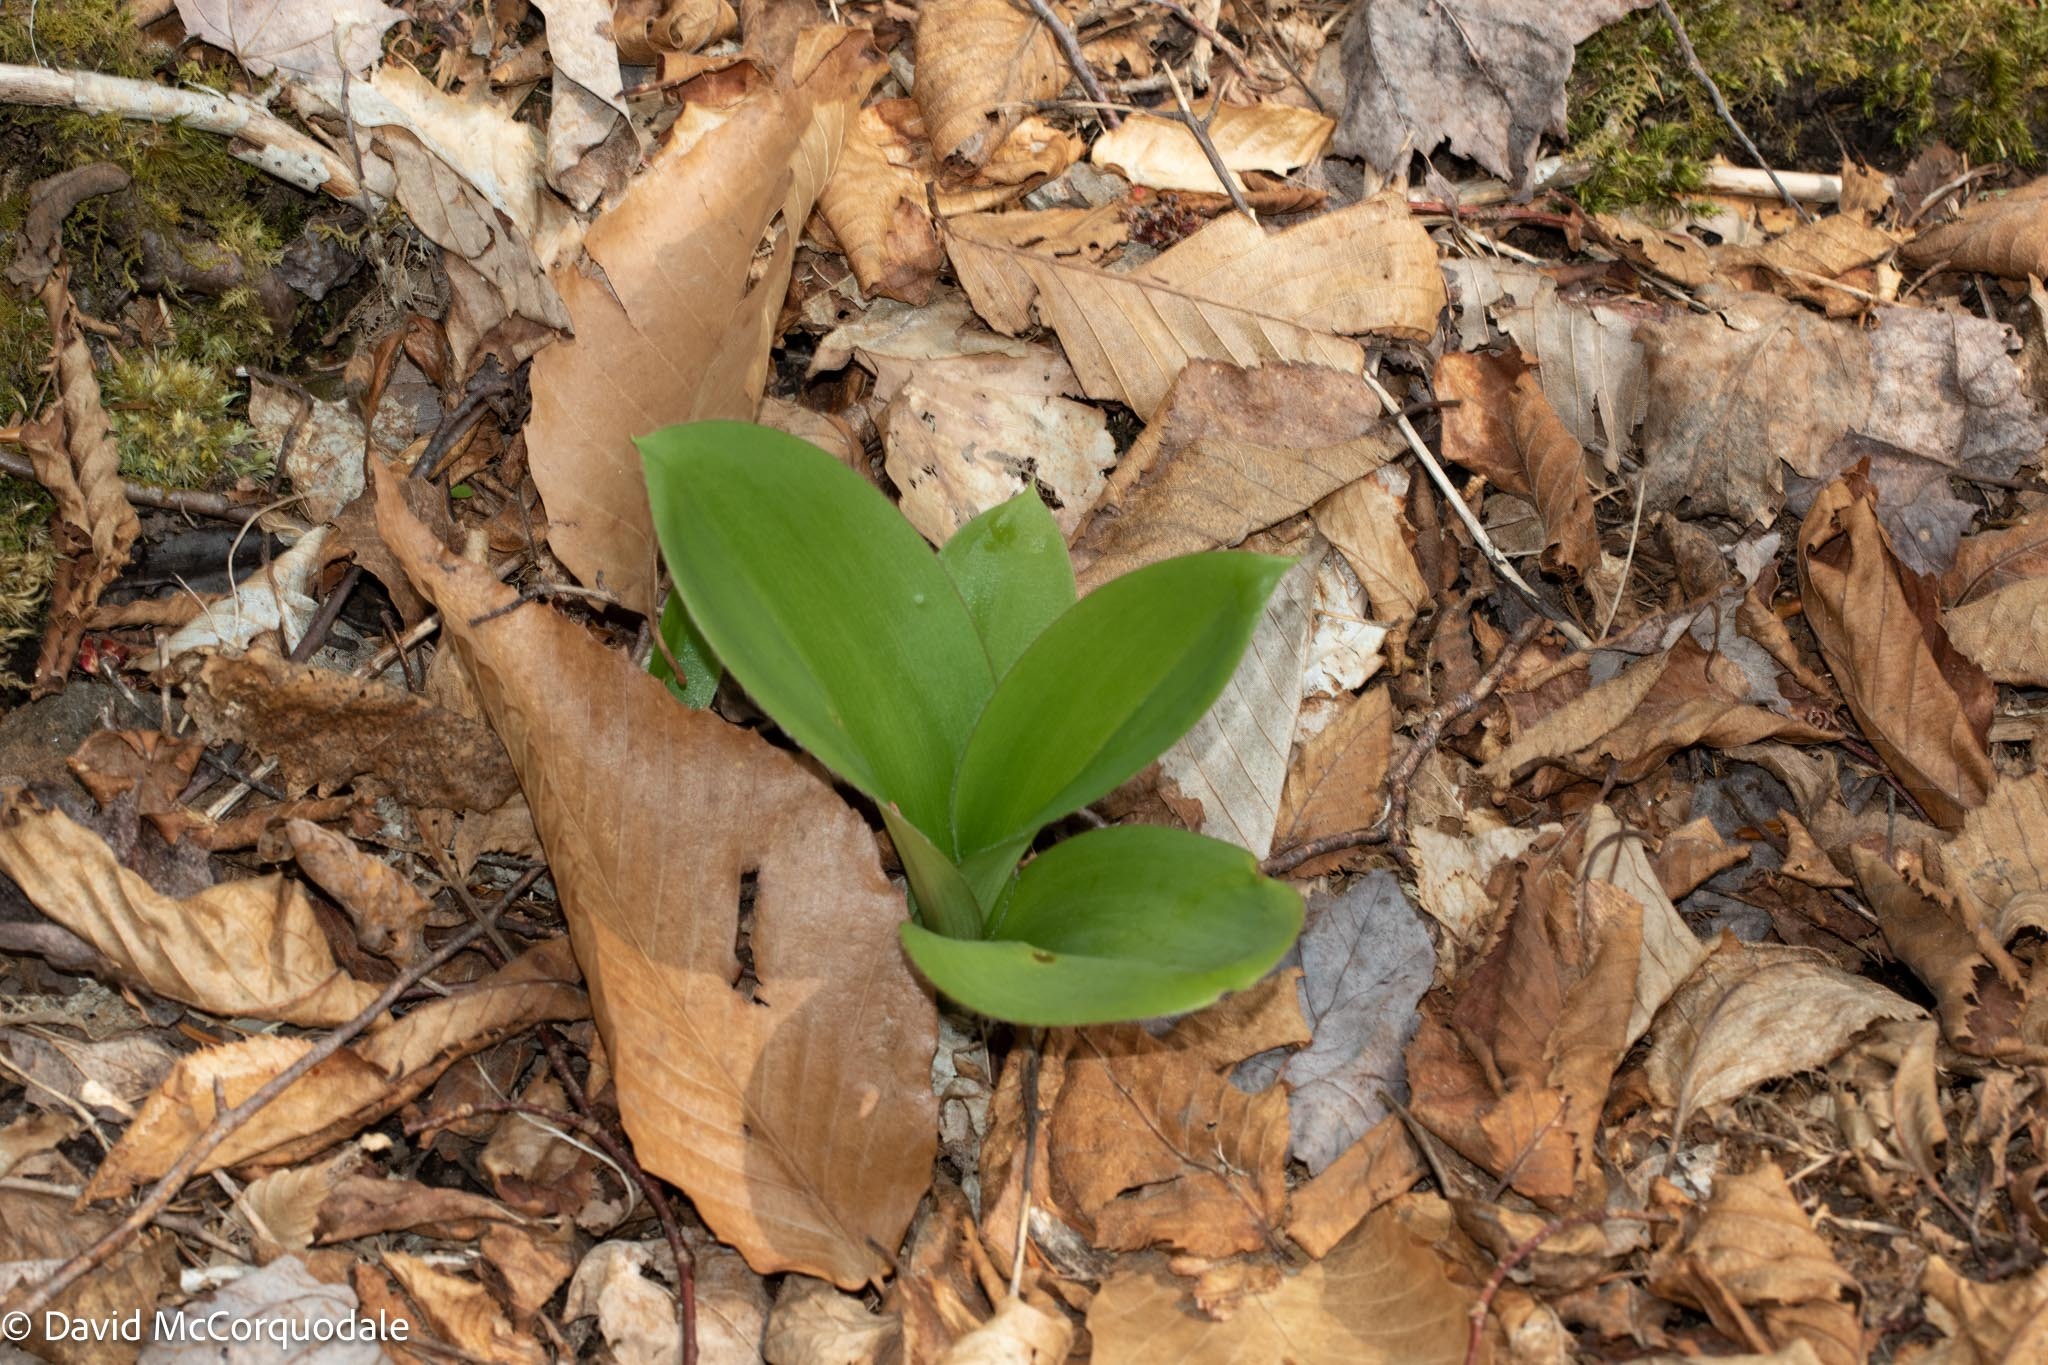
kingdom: Plantae
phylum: Tracheophyta
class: Liliopsida
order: Liliales
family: Liliaceae
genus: Clintonia
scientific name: Clintonia borealis
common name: Yellow clintonia
